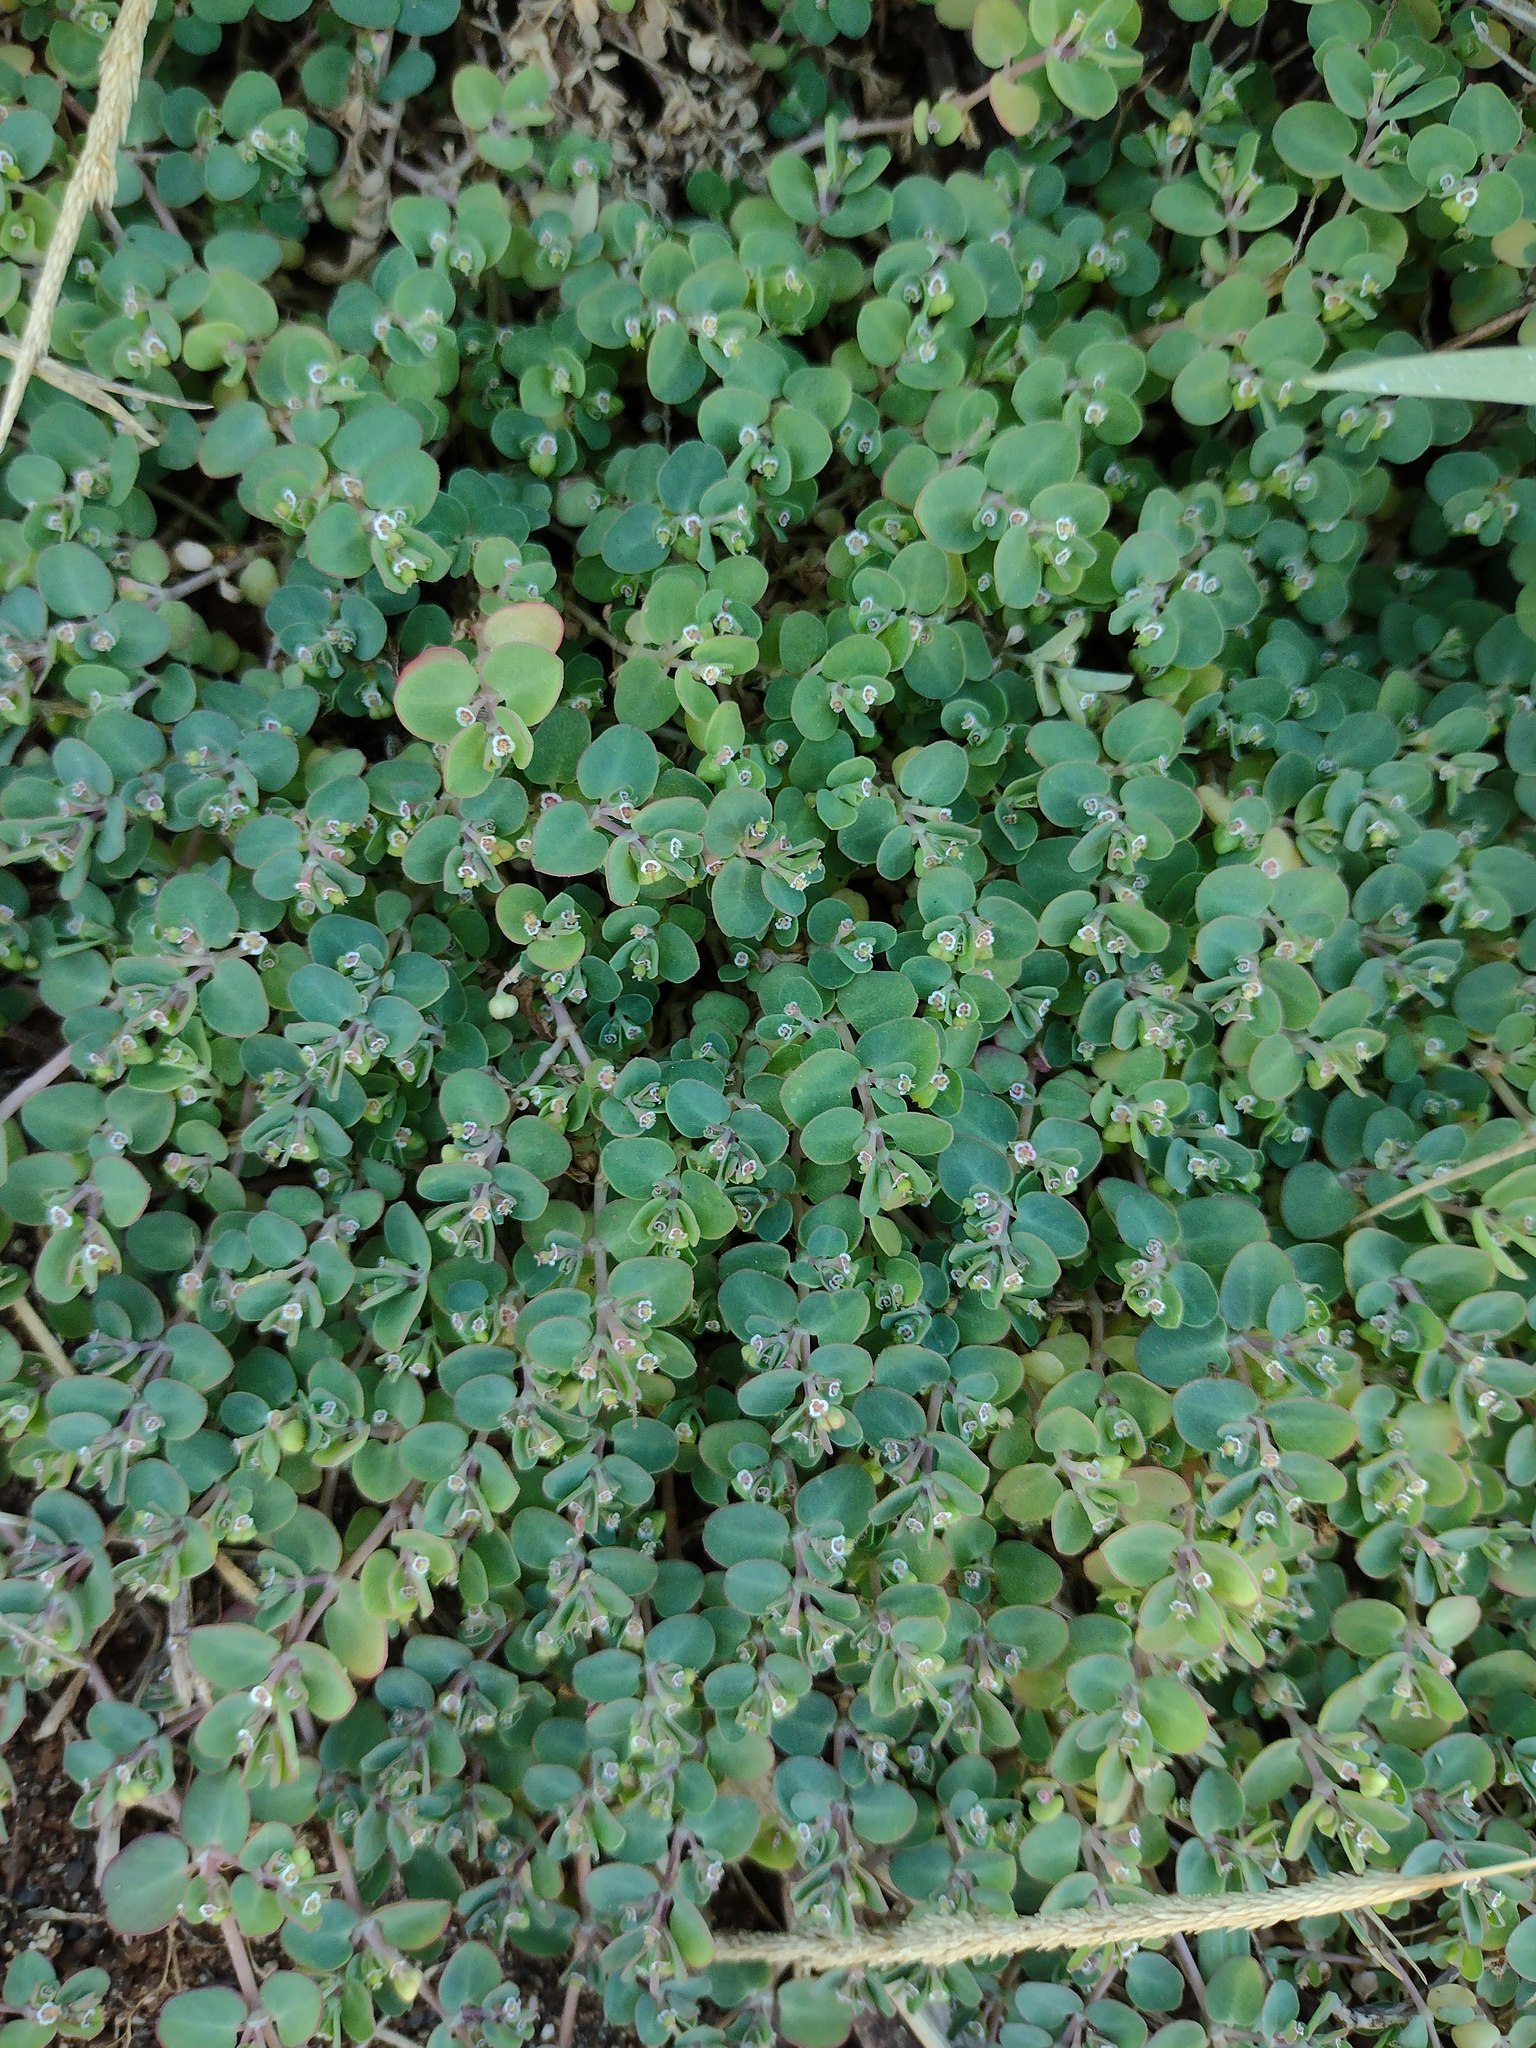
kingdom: Plantae
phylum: Tracheophyta
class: Magnoliopsida
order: Malpighiales
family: Euphorbiaceae
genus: Euphorbia
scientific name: Euphorbia serpens
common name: Matted sandmat
